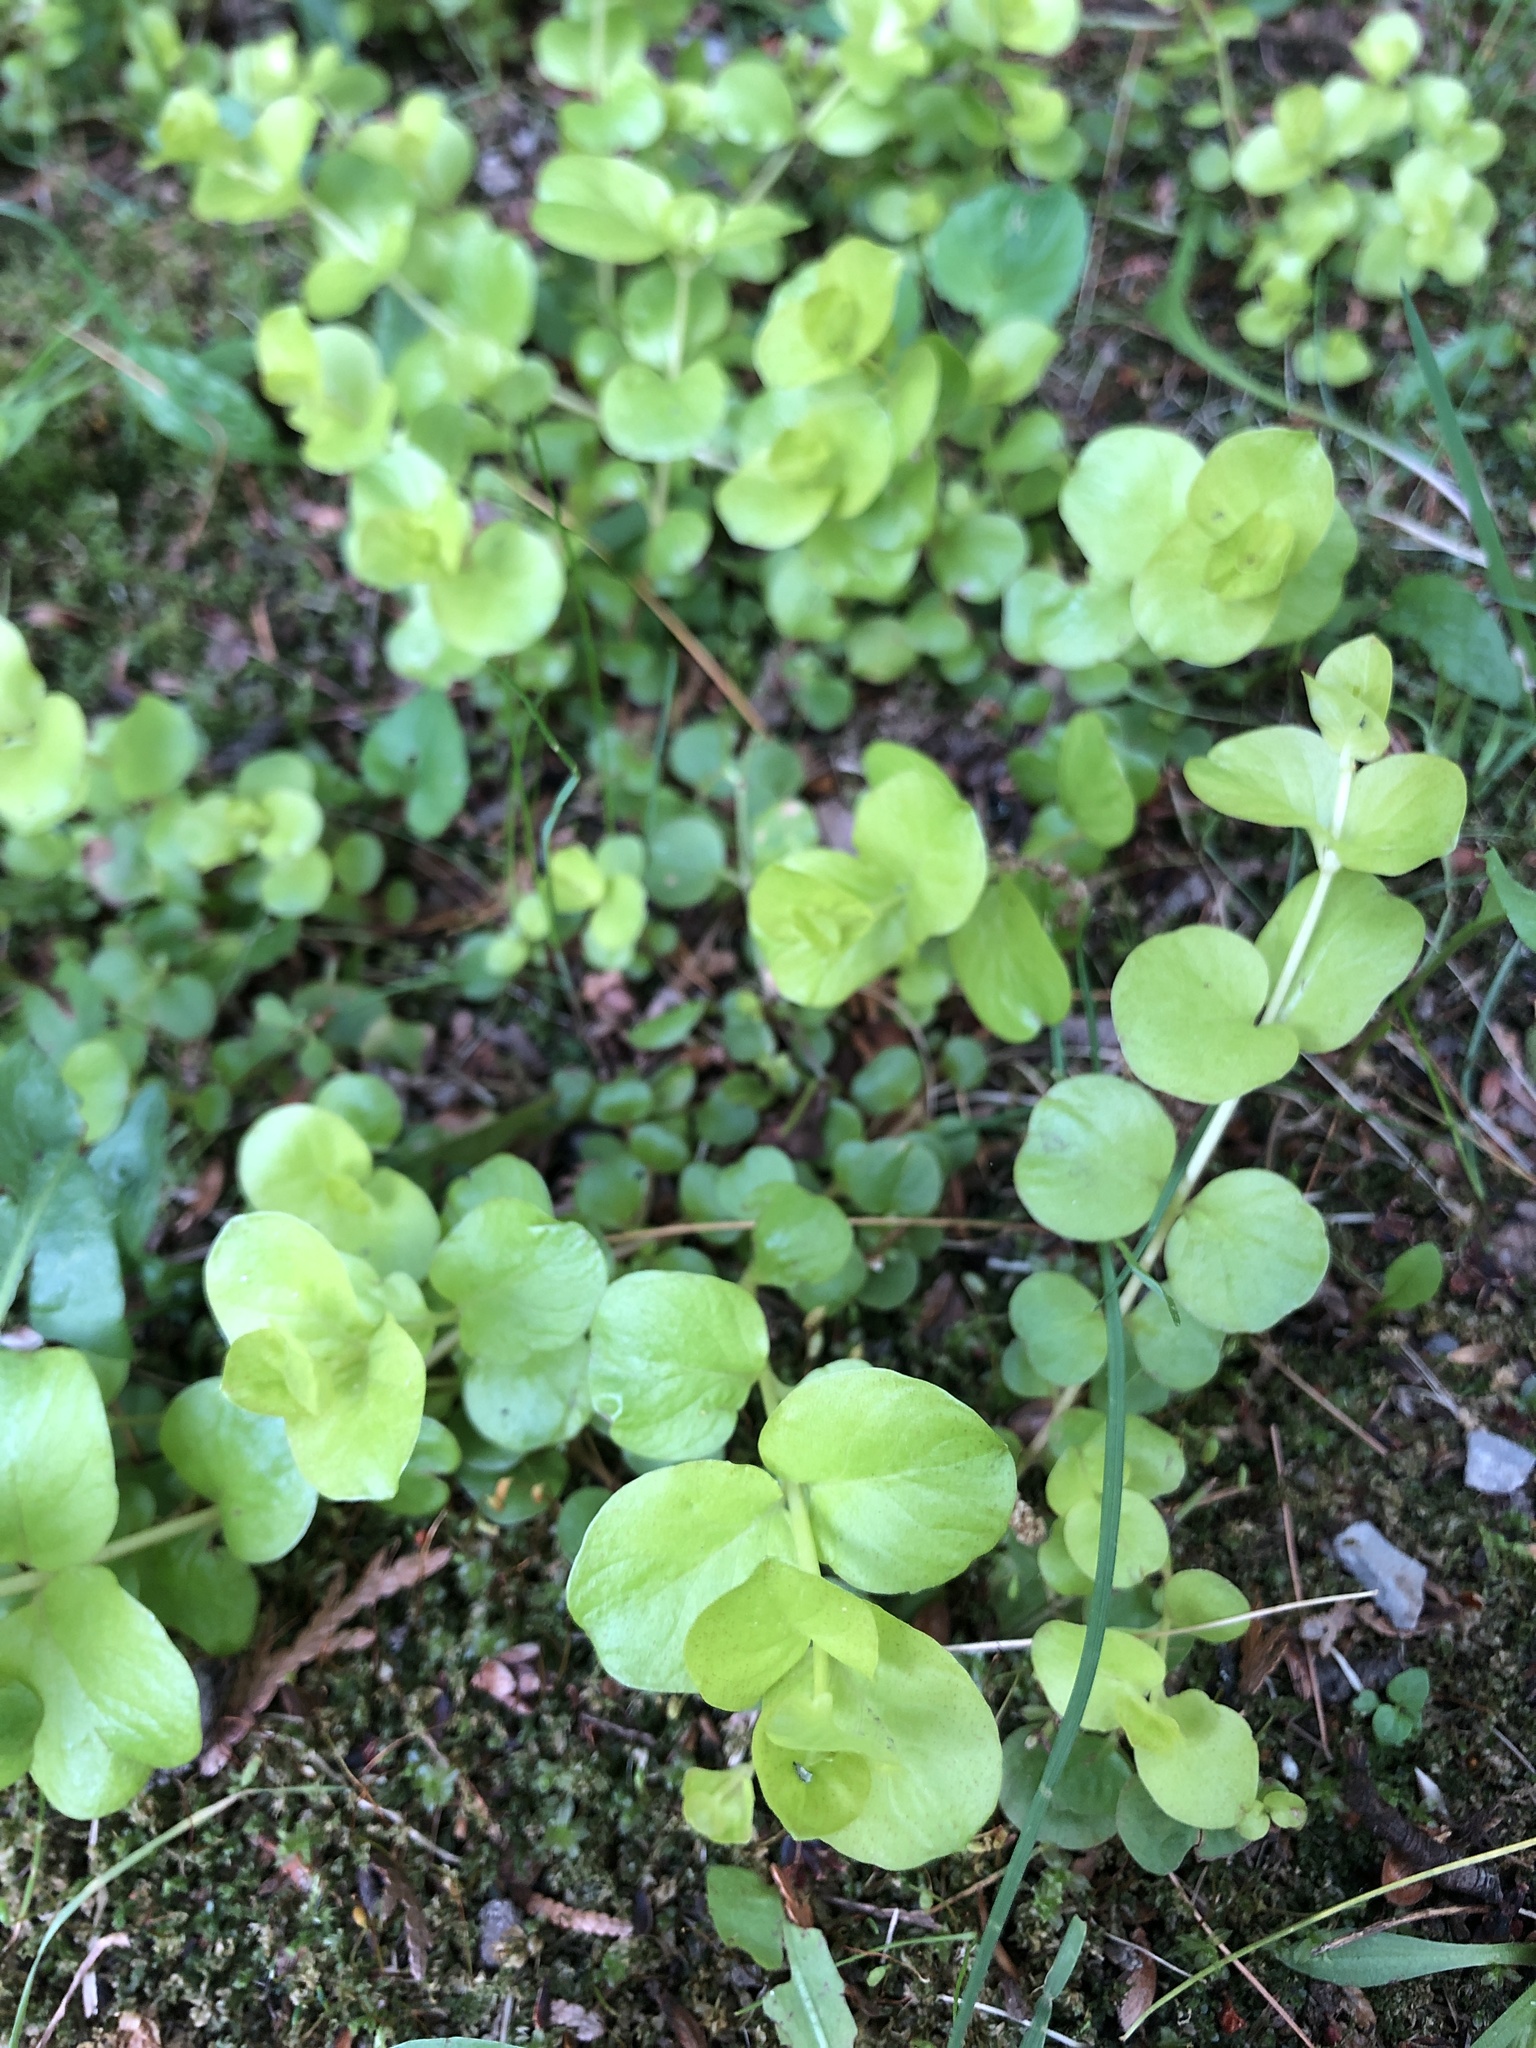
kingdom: Plantae
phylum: Tracheophyta
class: Magnoliopsida
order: Ericales
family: Primulaceae
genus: Lysimachia
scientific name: Lysimachia nummularia
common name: Moneywort
